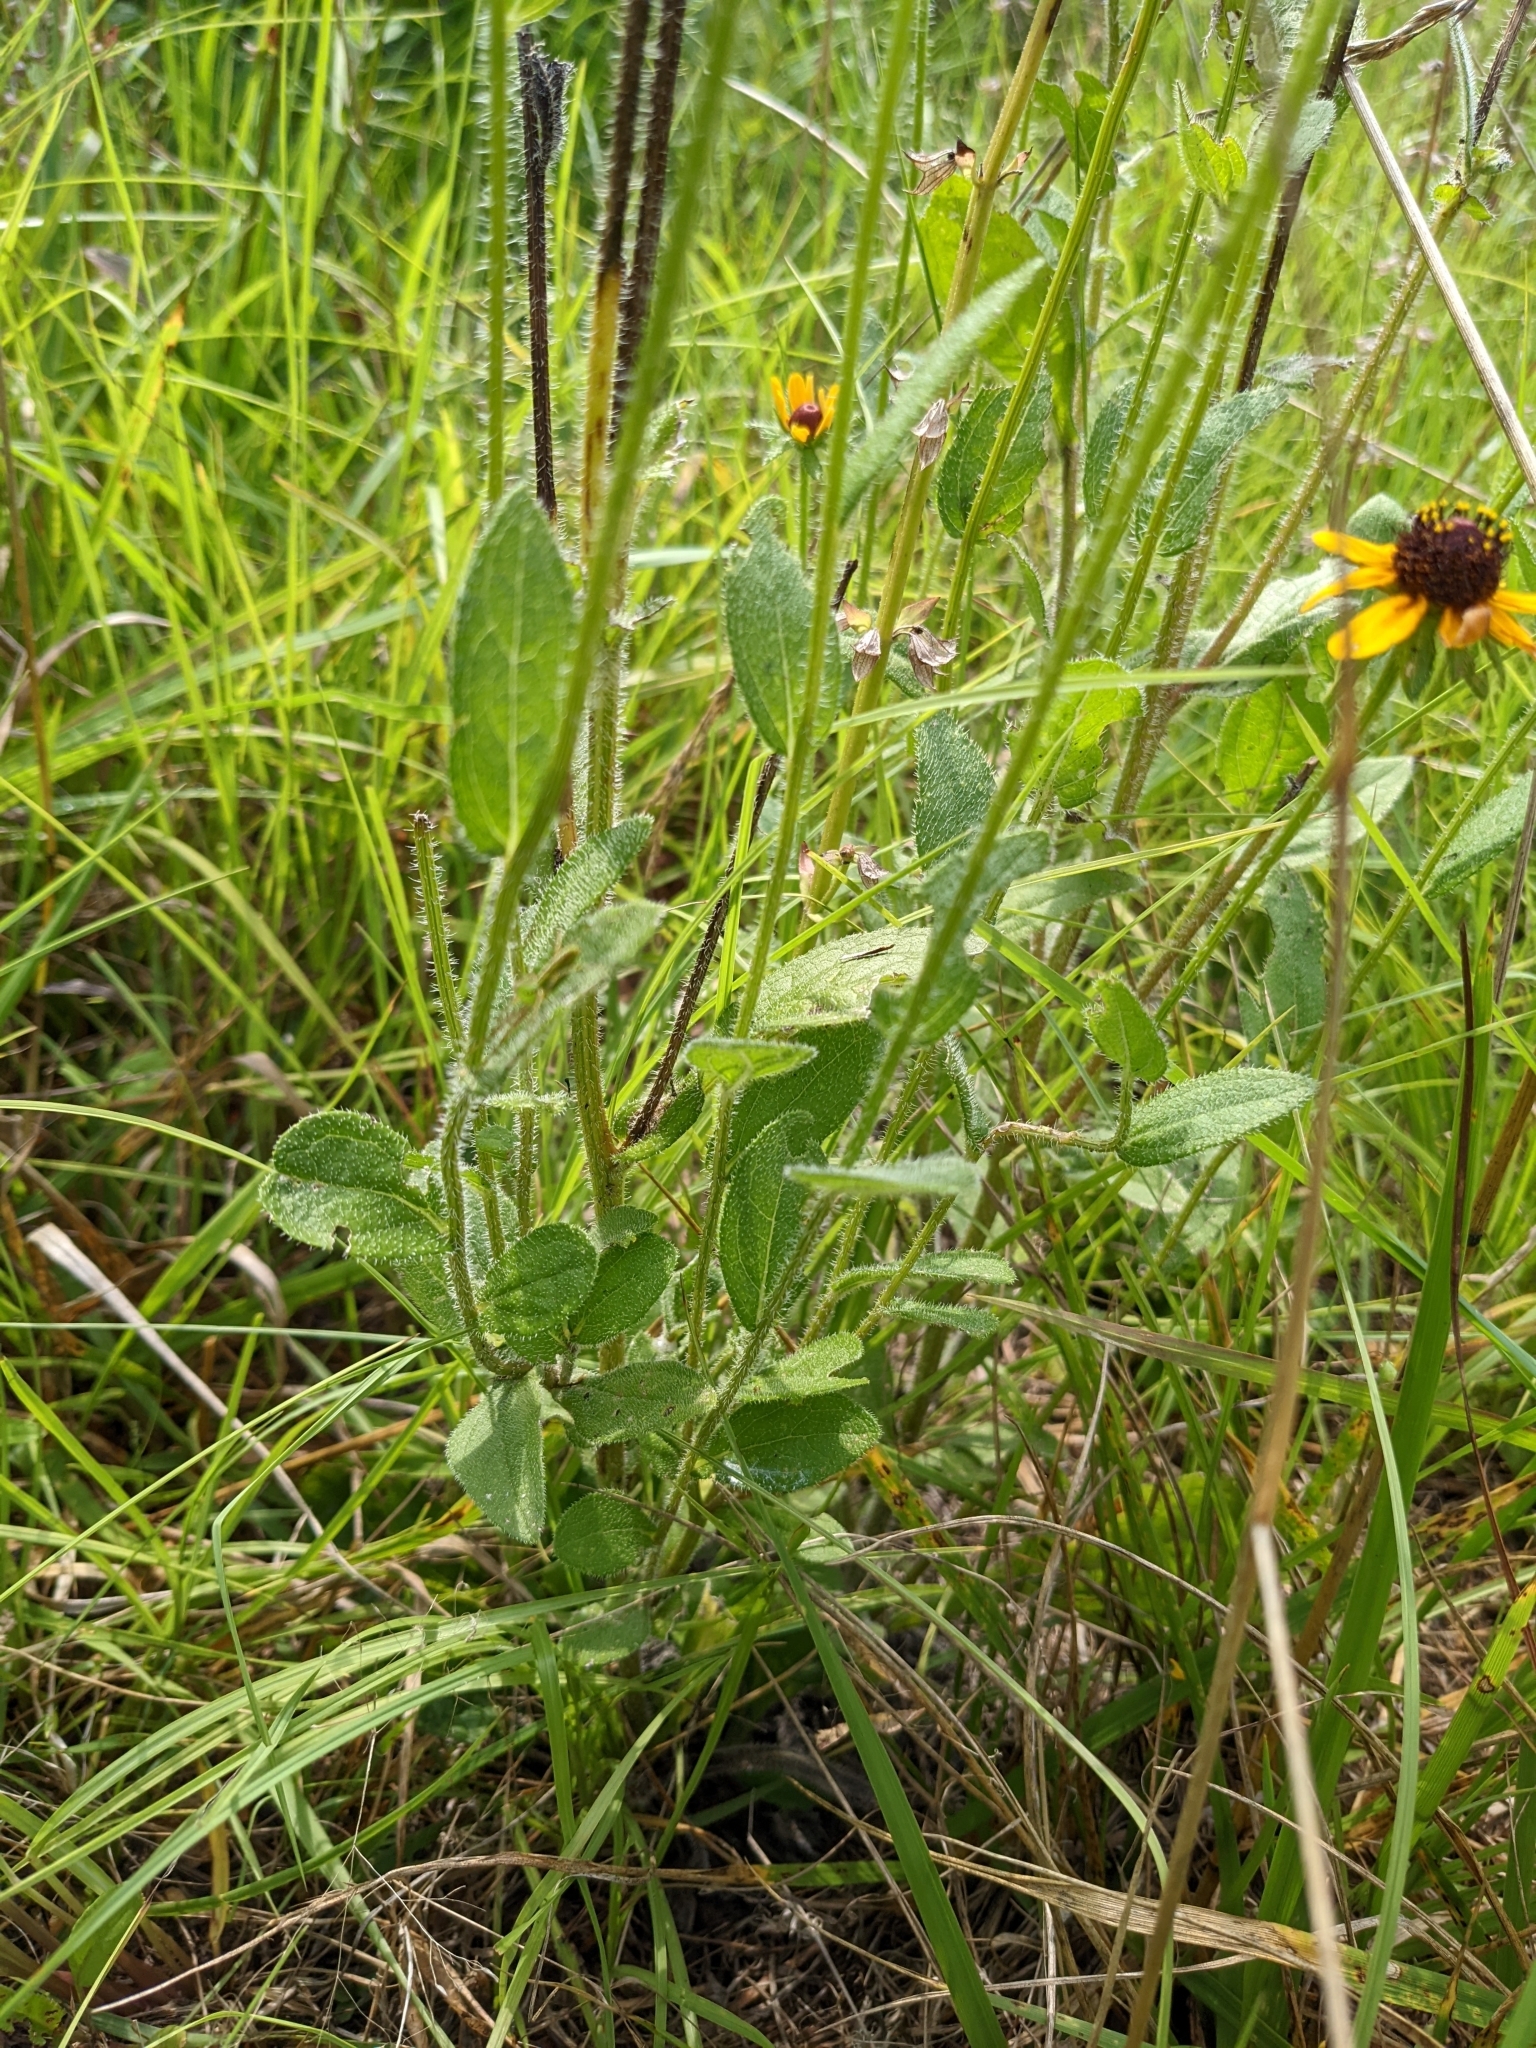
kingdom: Plantae
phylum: Tracheophyta
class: Magnoliopsida
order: Asterales
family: Asteraceae
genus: Rudbeckia
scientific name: Rudbeckia hirta
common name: Black-eyed-susan
